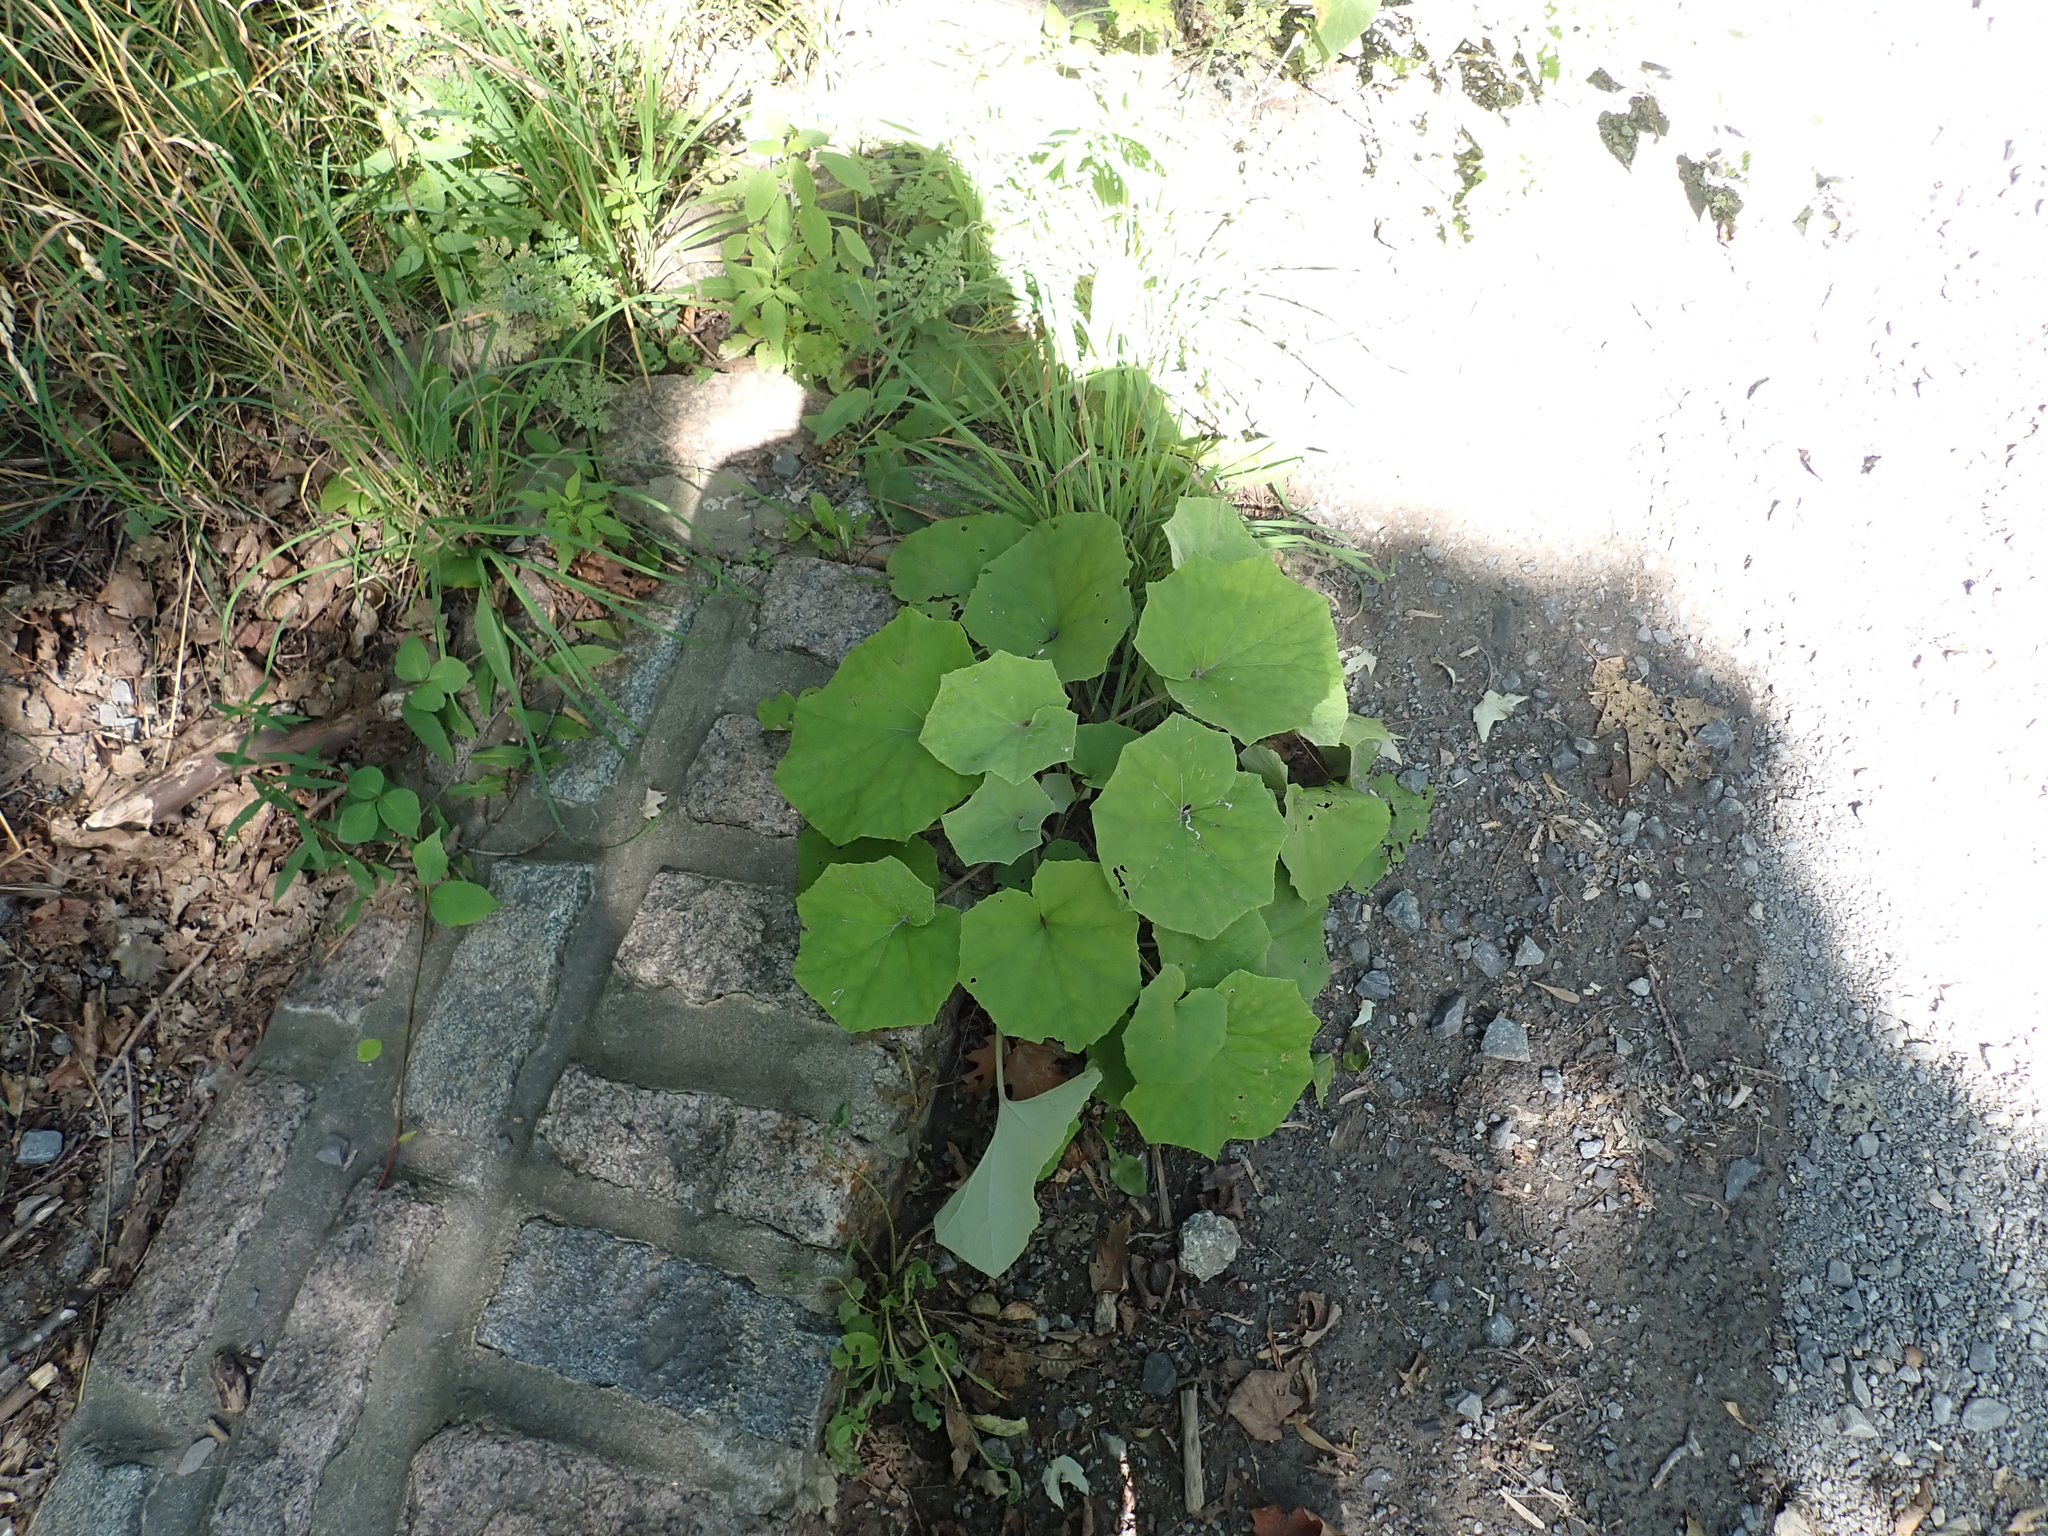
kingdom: Plantae
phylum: Tracheophyta
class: Magnoliopsida
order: Asterales
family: Asteraceae
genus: Tussilago
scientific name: Tussilago farfara
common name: Coltsfoot
